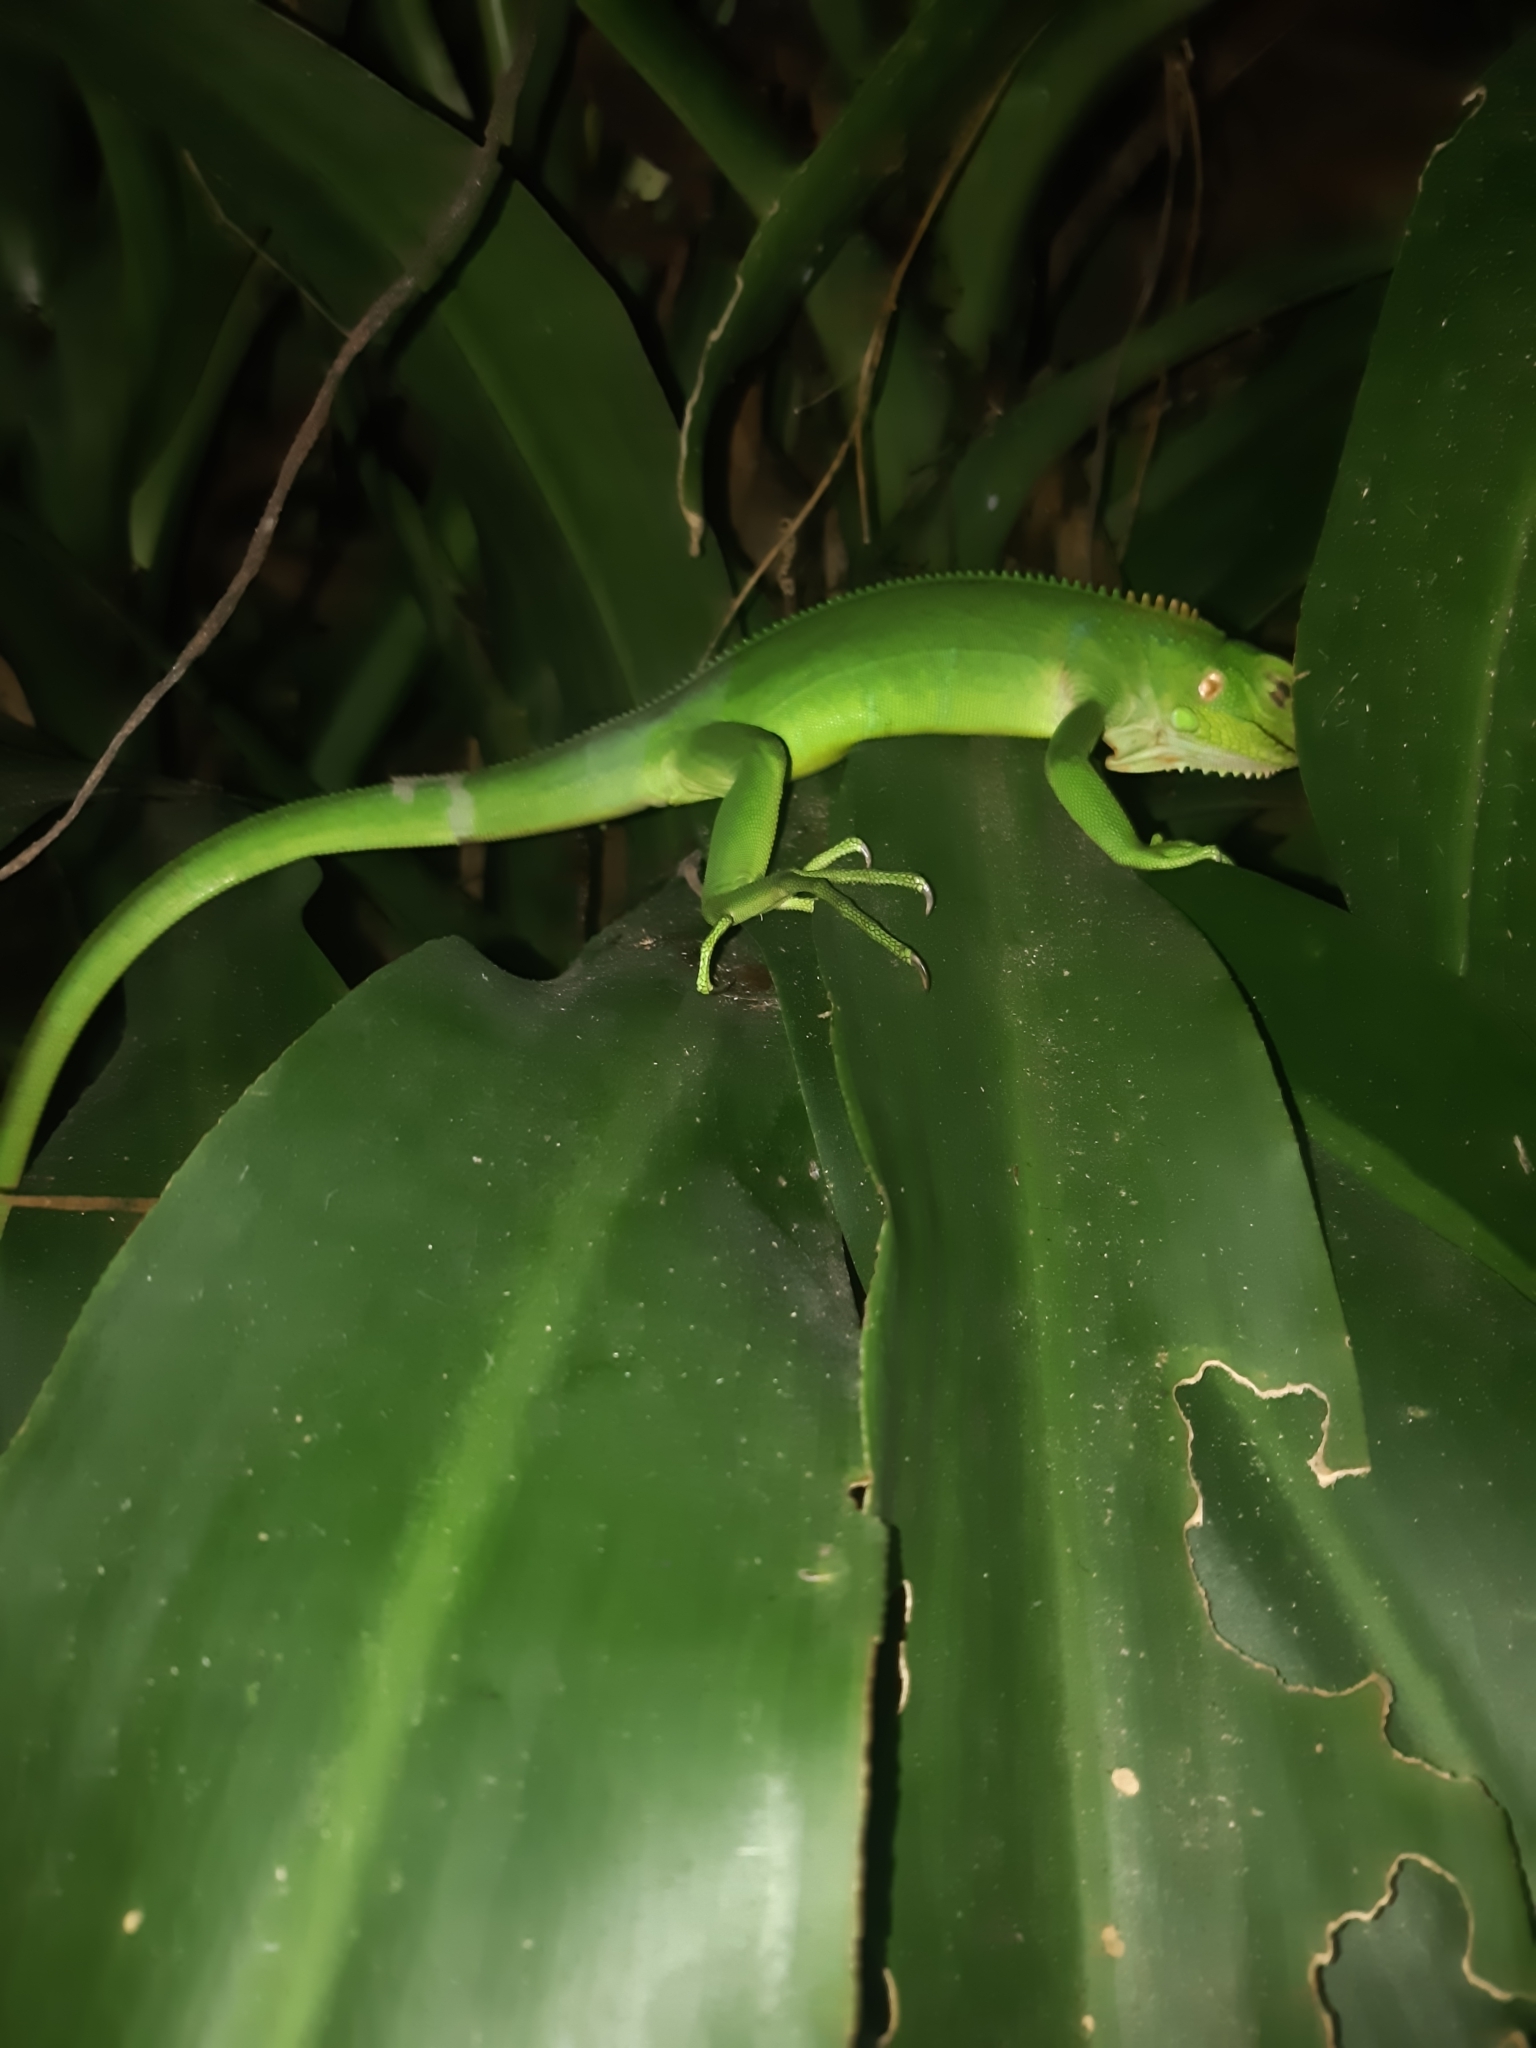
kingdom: Animalia
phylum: Chordata
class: Squamata
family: Iguanidae
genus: Iguana
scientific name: Iguana iguana
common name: Green iguana
